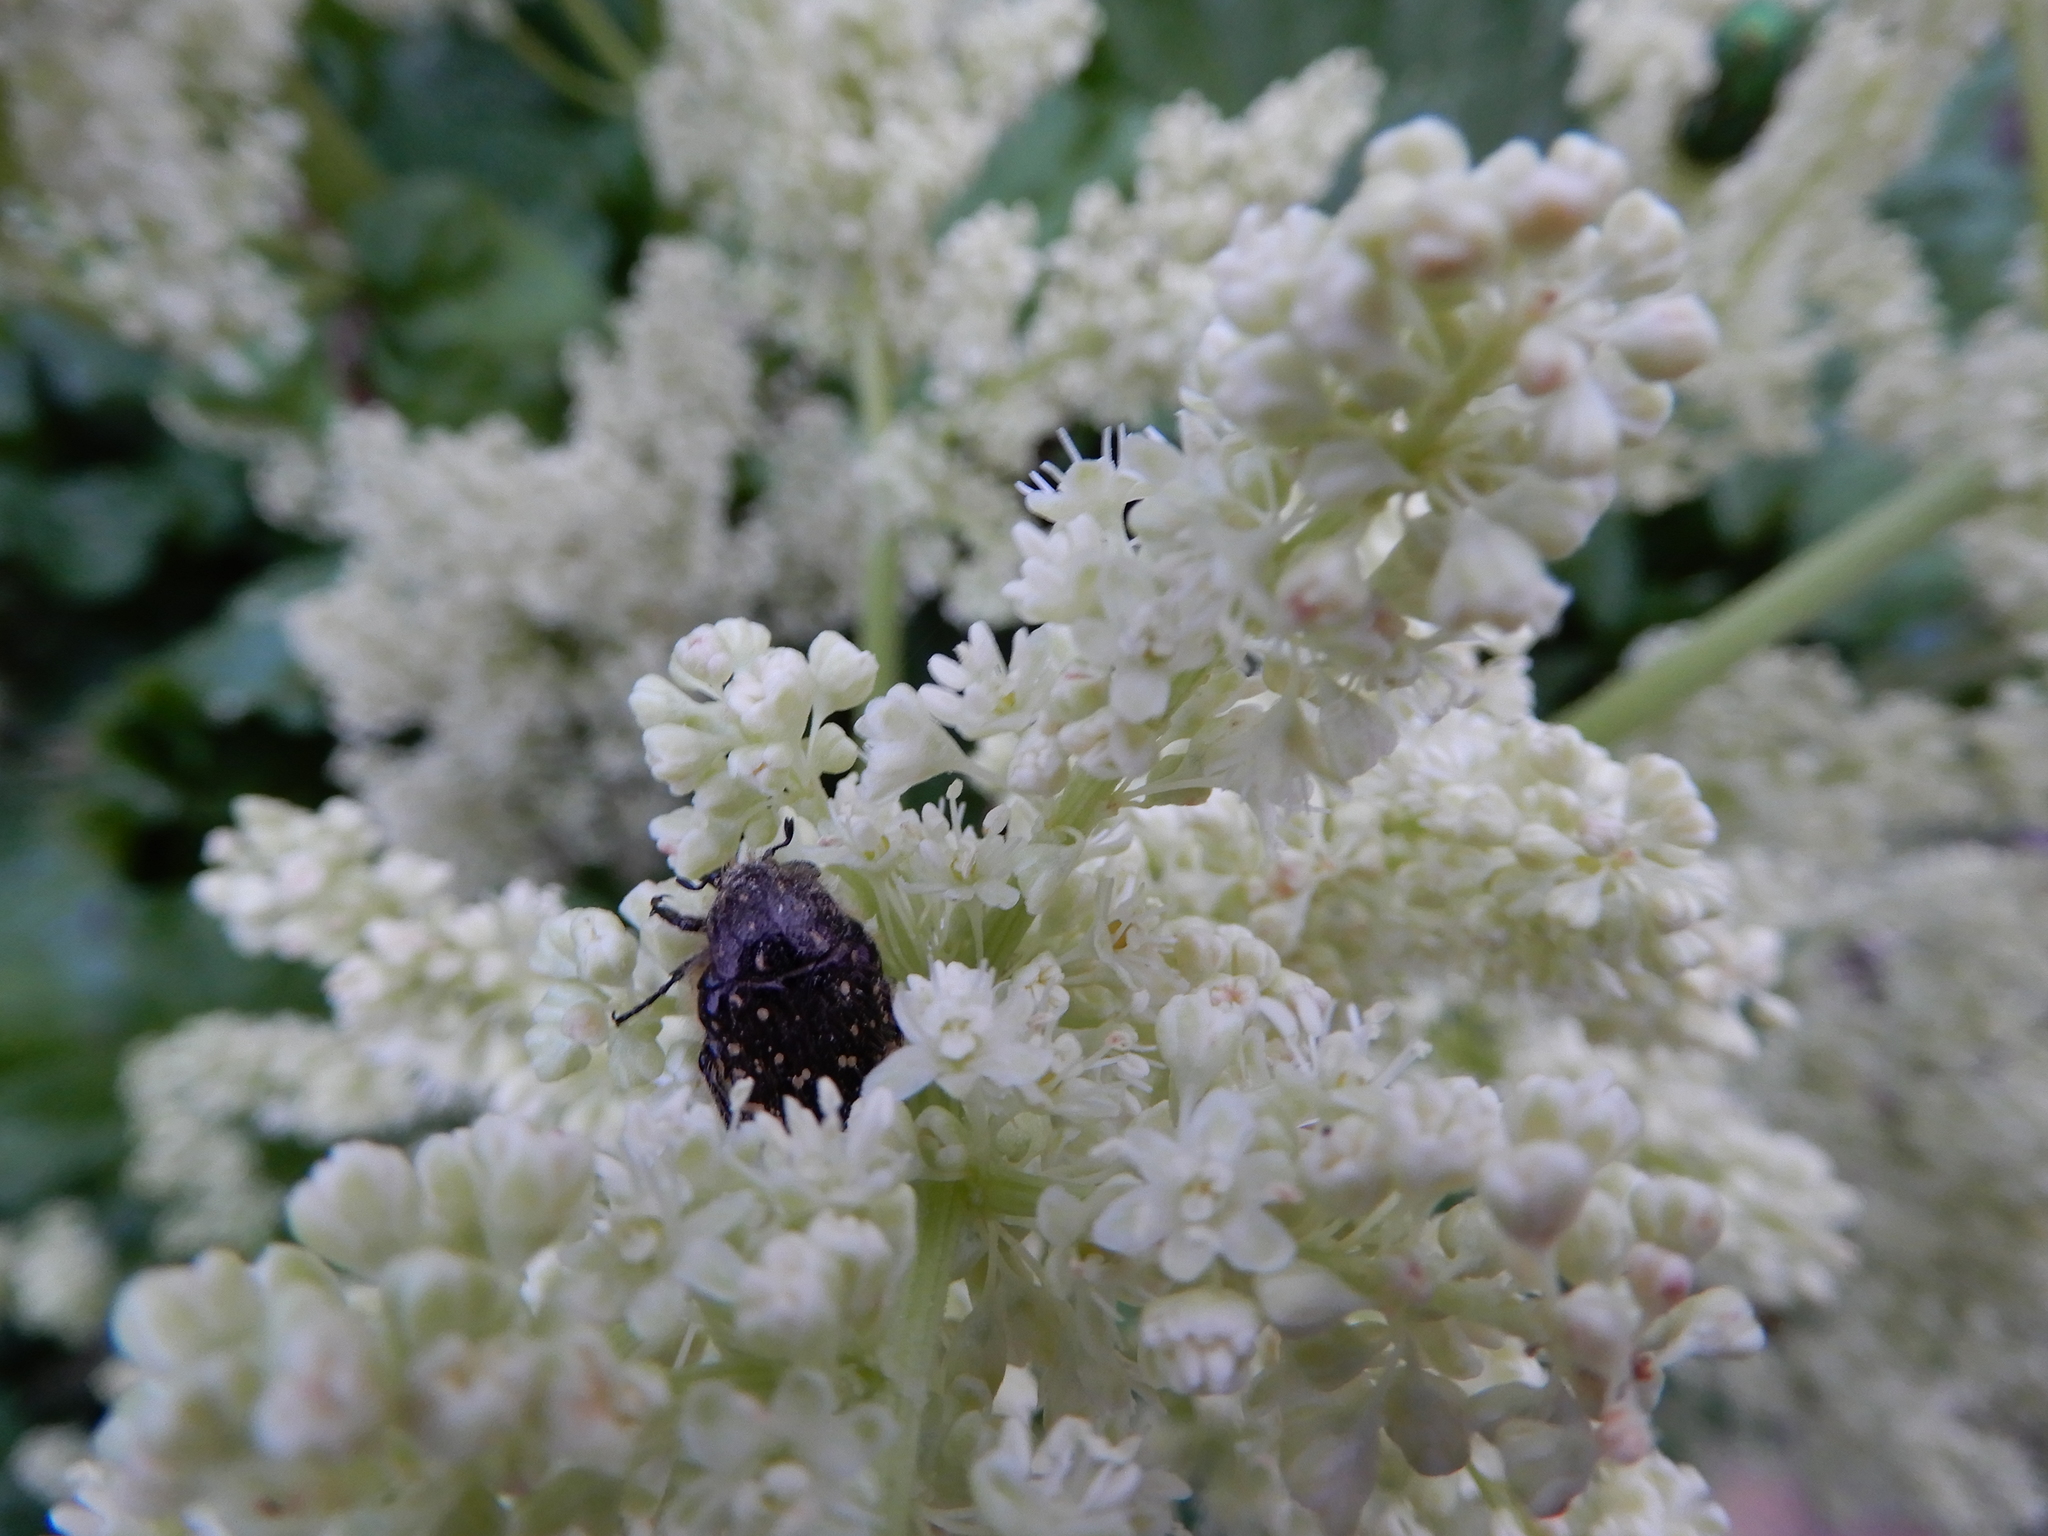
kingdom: Animalia
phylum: Arthropoda
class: Insecta
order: Coleoptera
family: Scarabaeidae
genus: Oxythyrea
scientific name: Oxythyrea funesta
